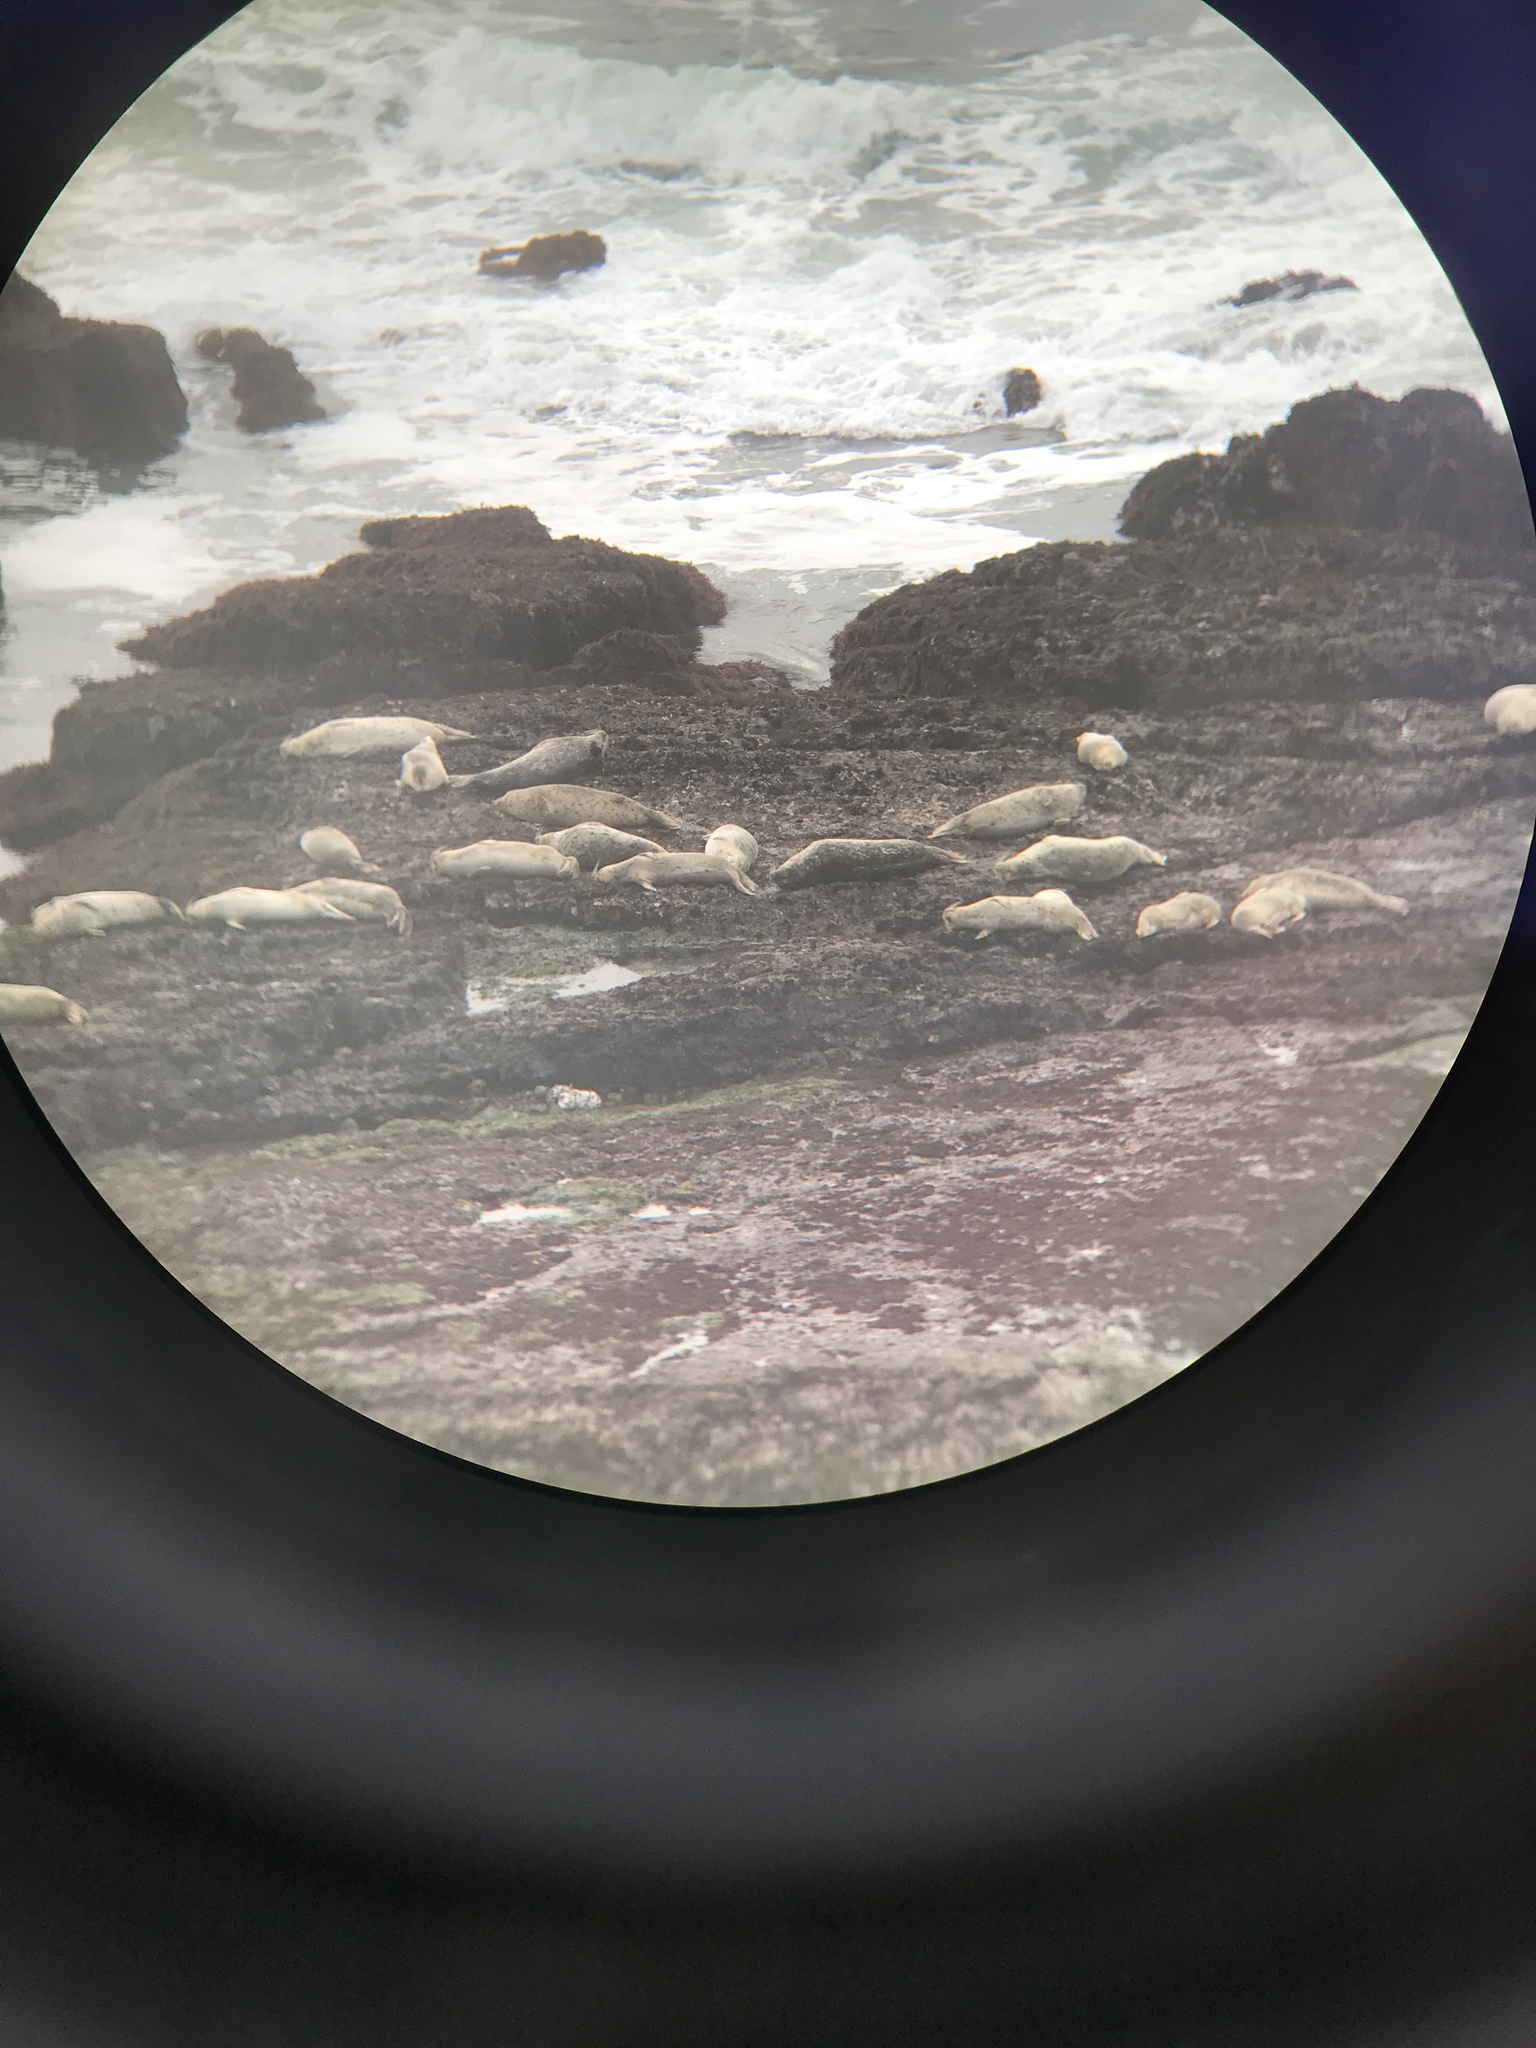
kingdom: Animalia
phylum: Chordata
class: Mammalia
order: Carnivora
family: Phocidae
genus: Phoca
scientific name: Phoca vitulina
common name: Harbor seal
